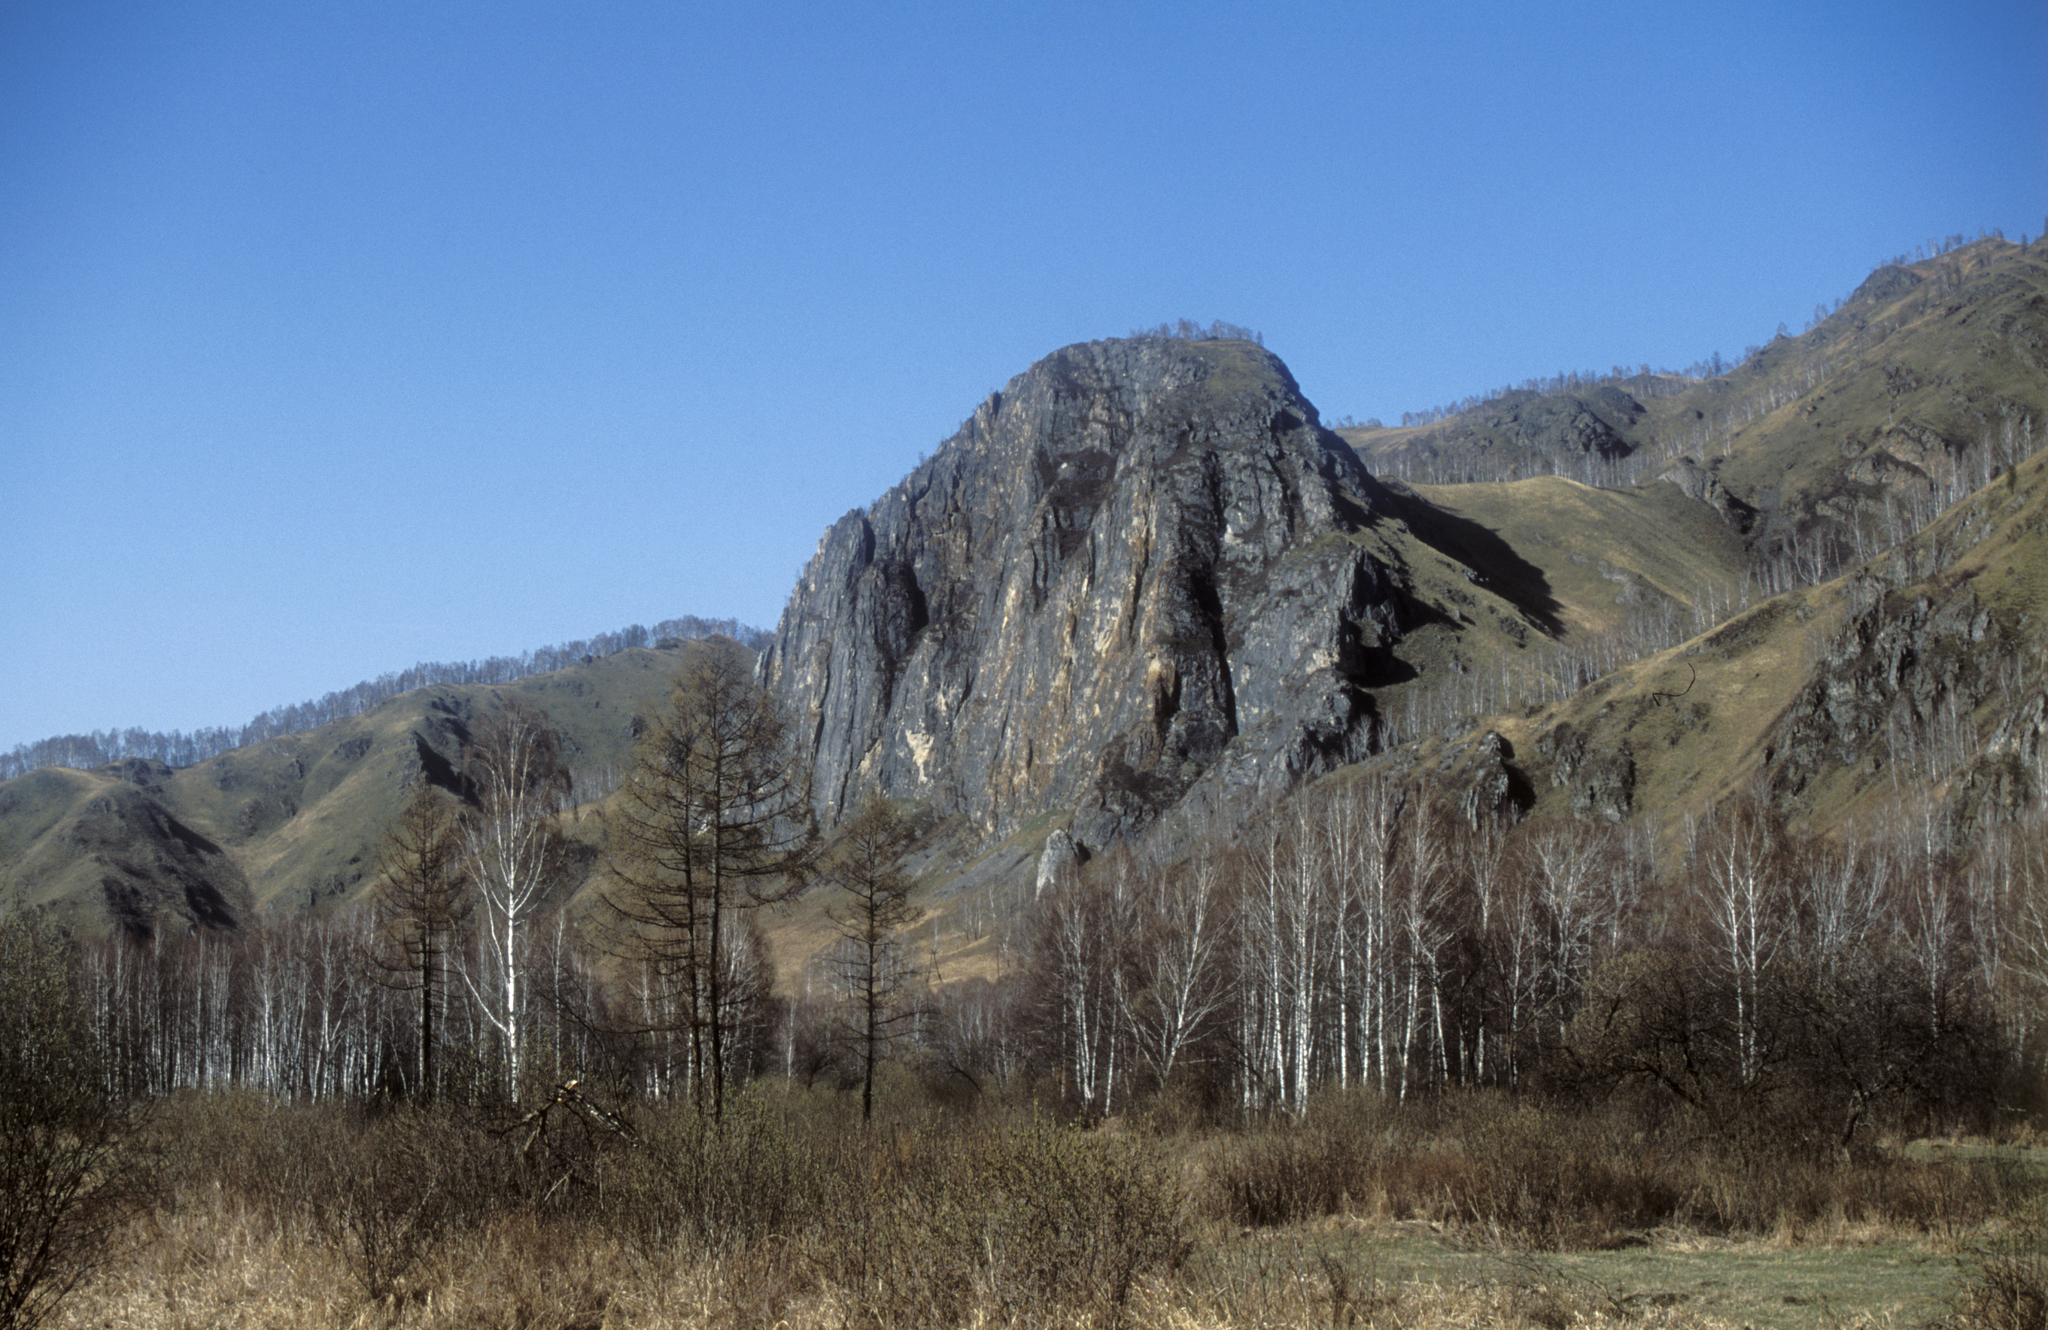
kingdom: Plantae
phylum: Tracheophyta
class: Magnoliopsida
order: Fagales
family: Betulaceae
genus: Betula
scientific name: Betula pendula
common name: Silver birch
